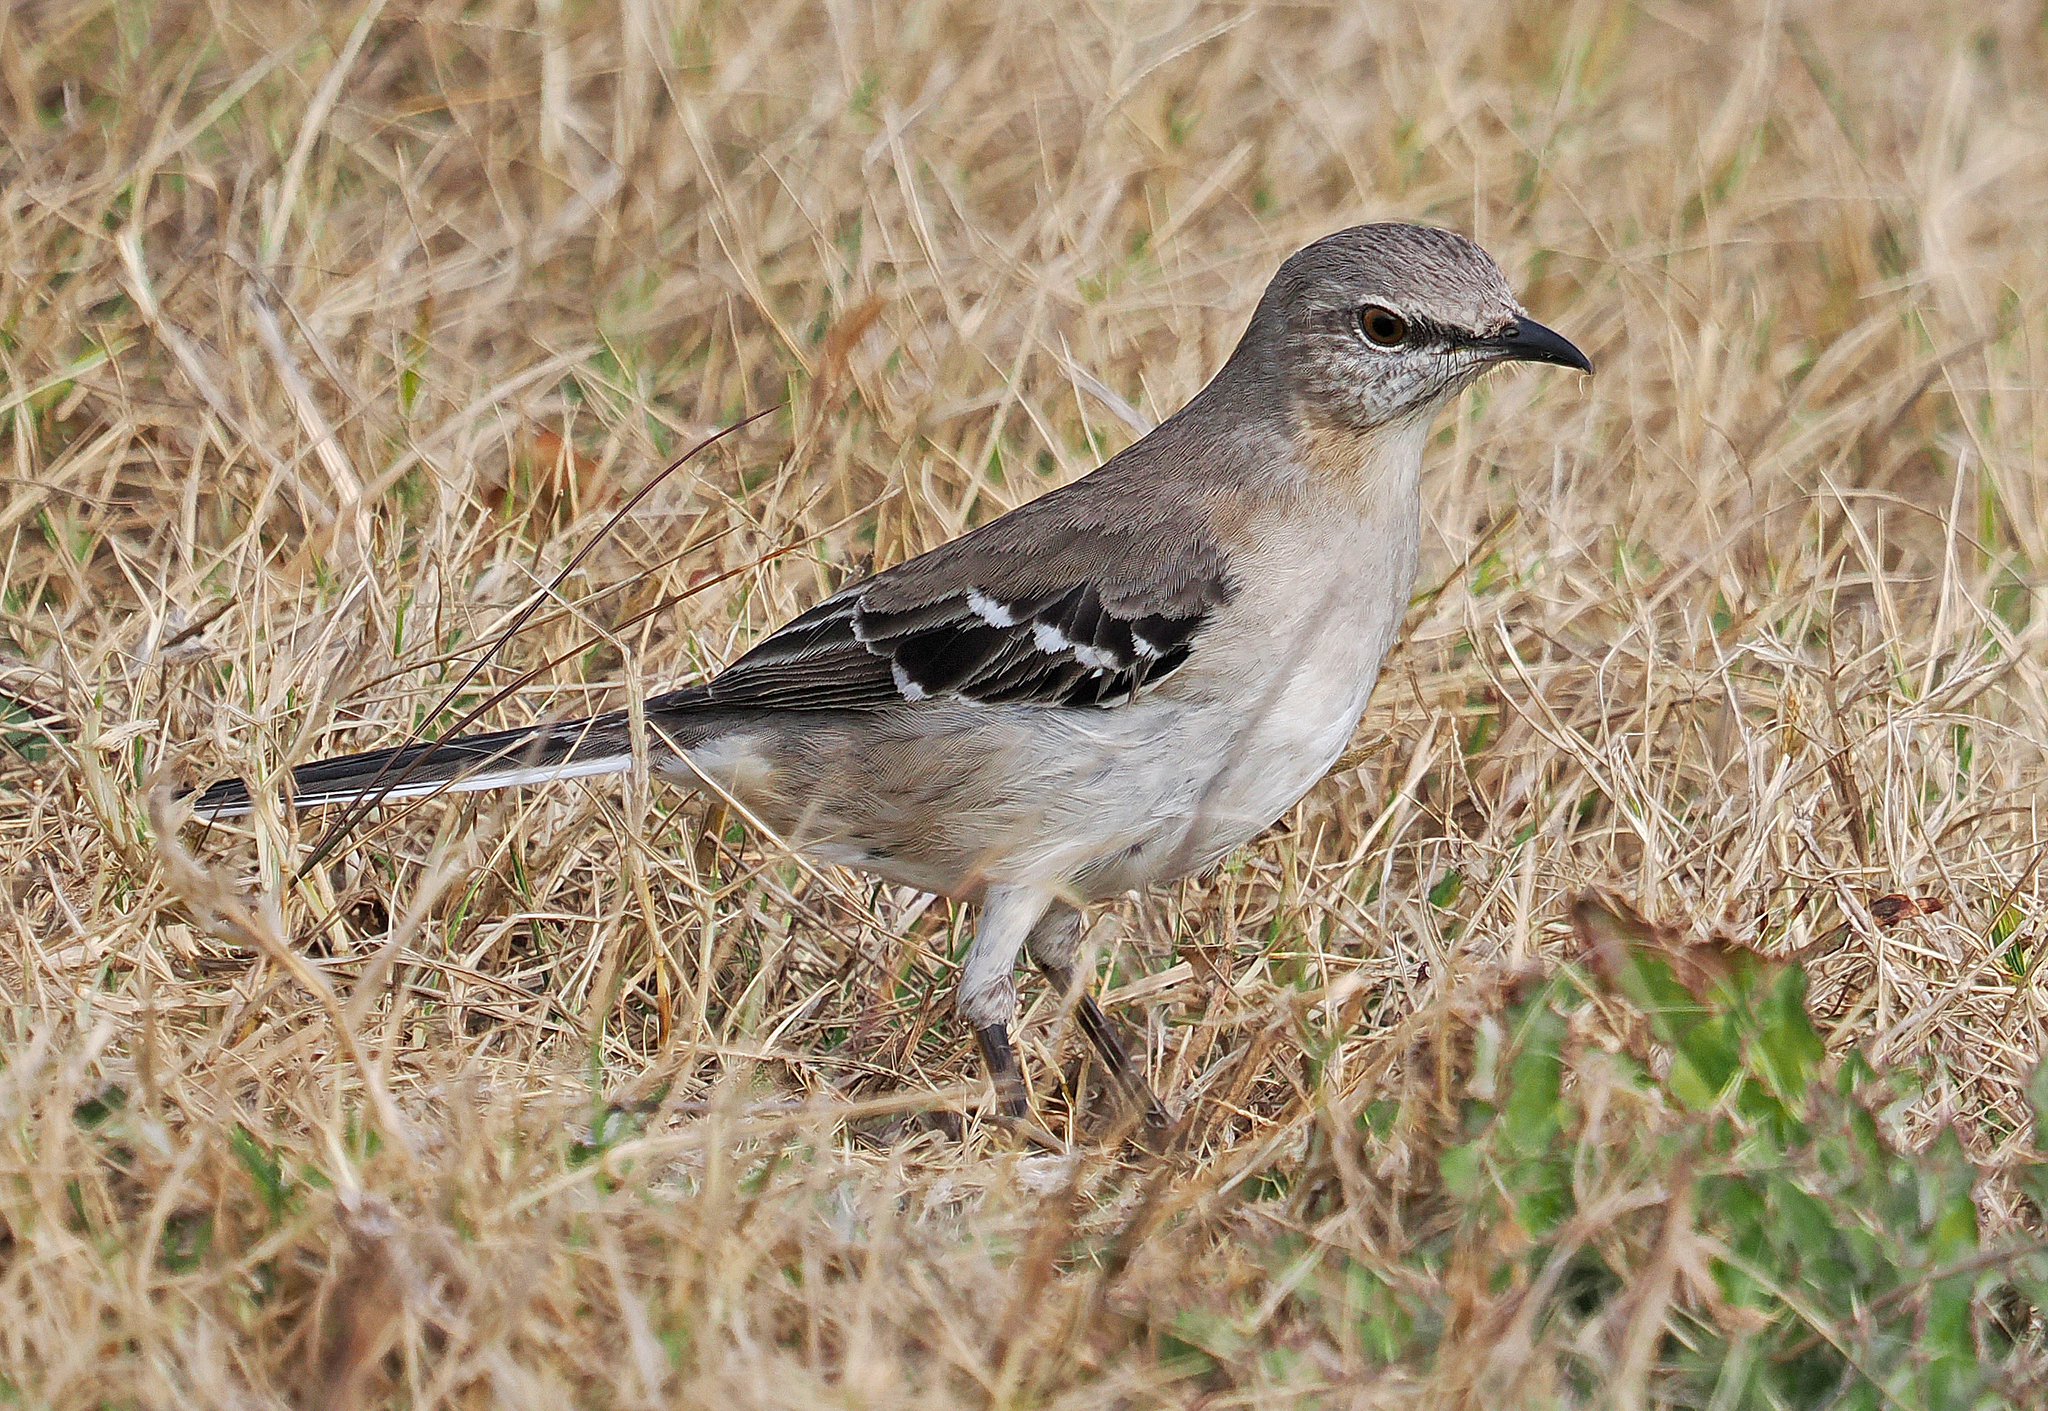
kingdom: Animalia
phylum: Chordata
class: Aves
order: Passeriformes
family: Mimidae
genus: Mimus
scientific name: Mimus polyglottos
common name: Northern mockingbird
